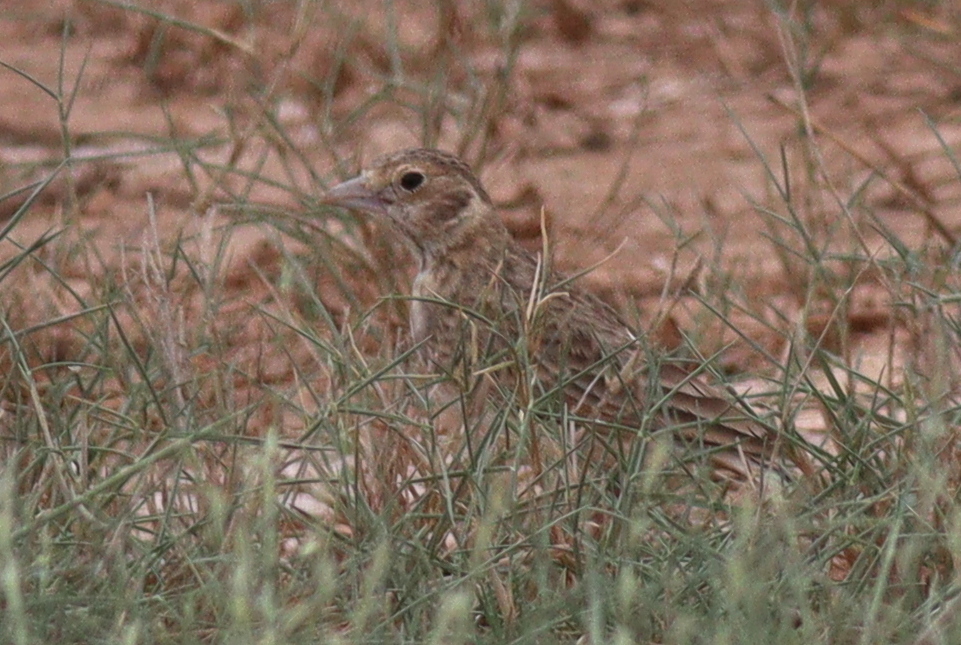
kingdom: Animalia
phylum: Chordata
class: Aves
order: Passeriformes
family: Alaudidae
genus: Eremopterix
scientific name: Eremopterix leucopareia
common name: Fischer's sparrow-lark
